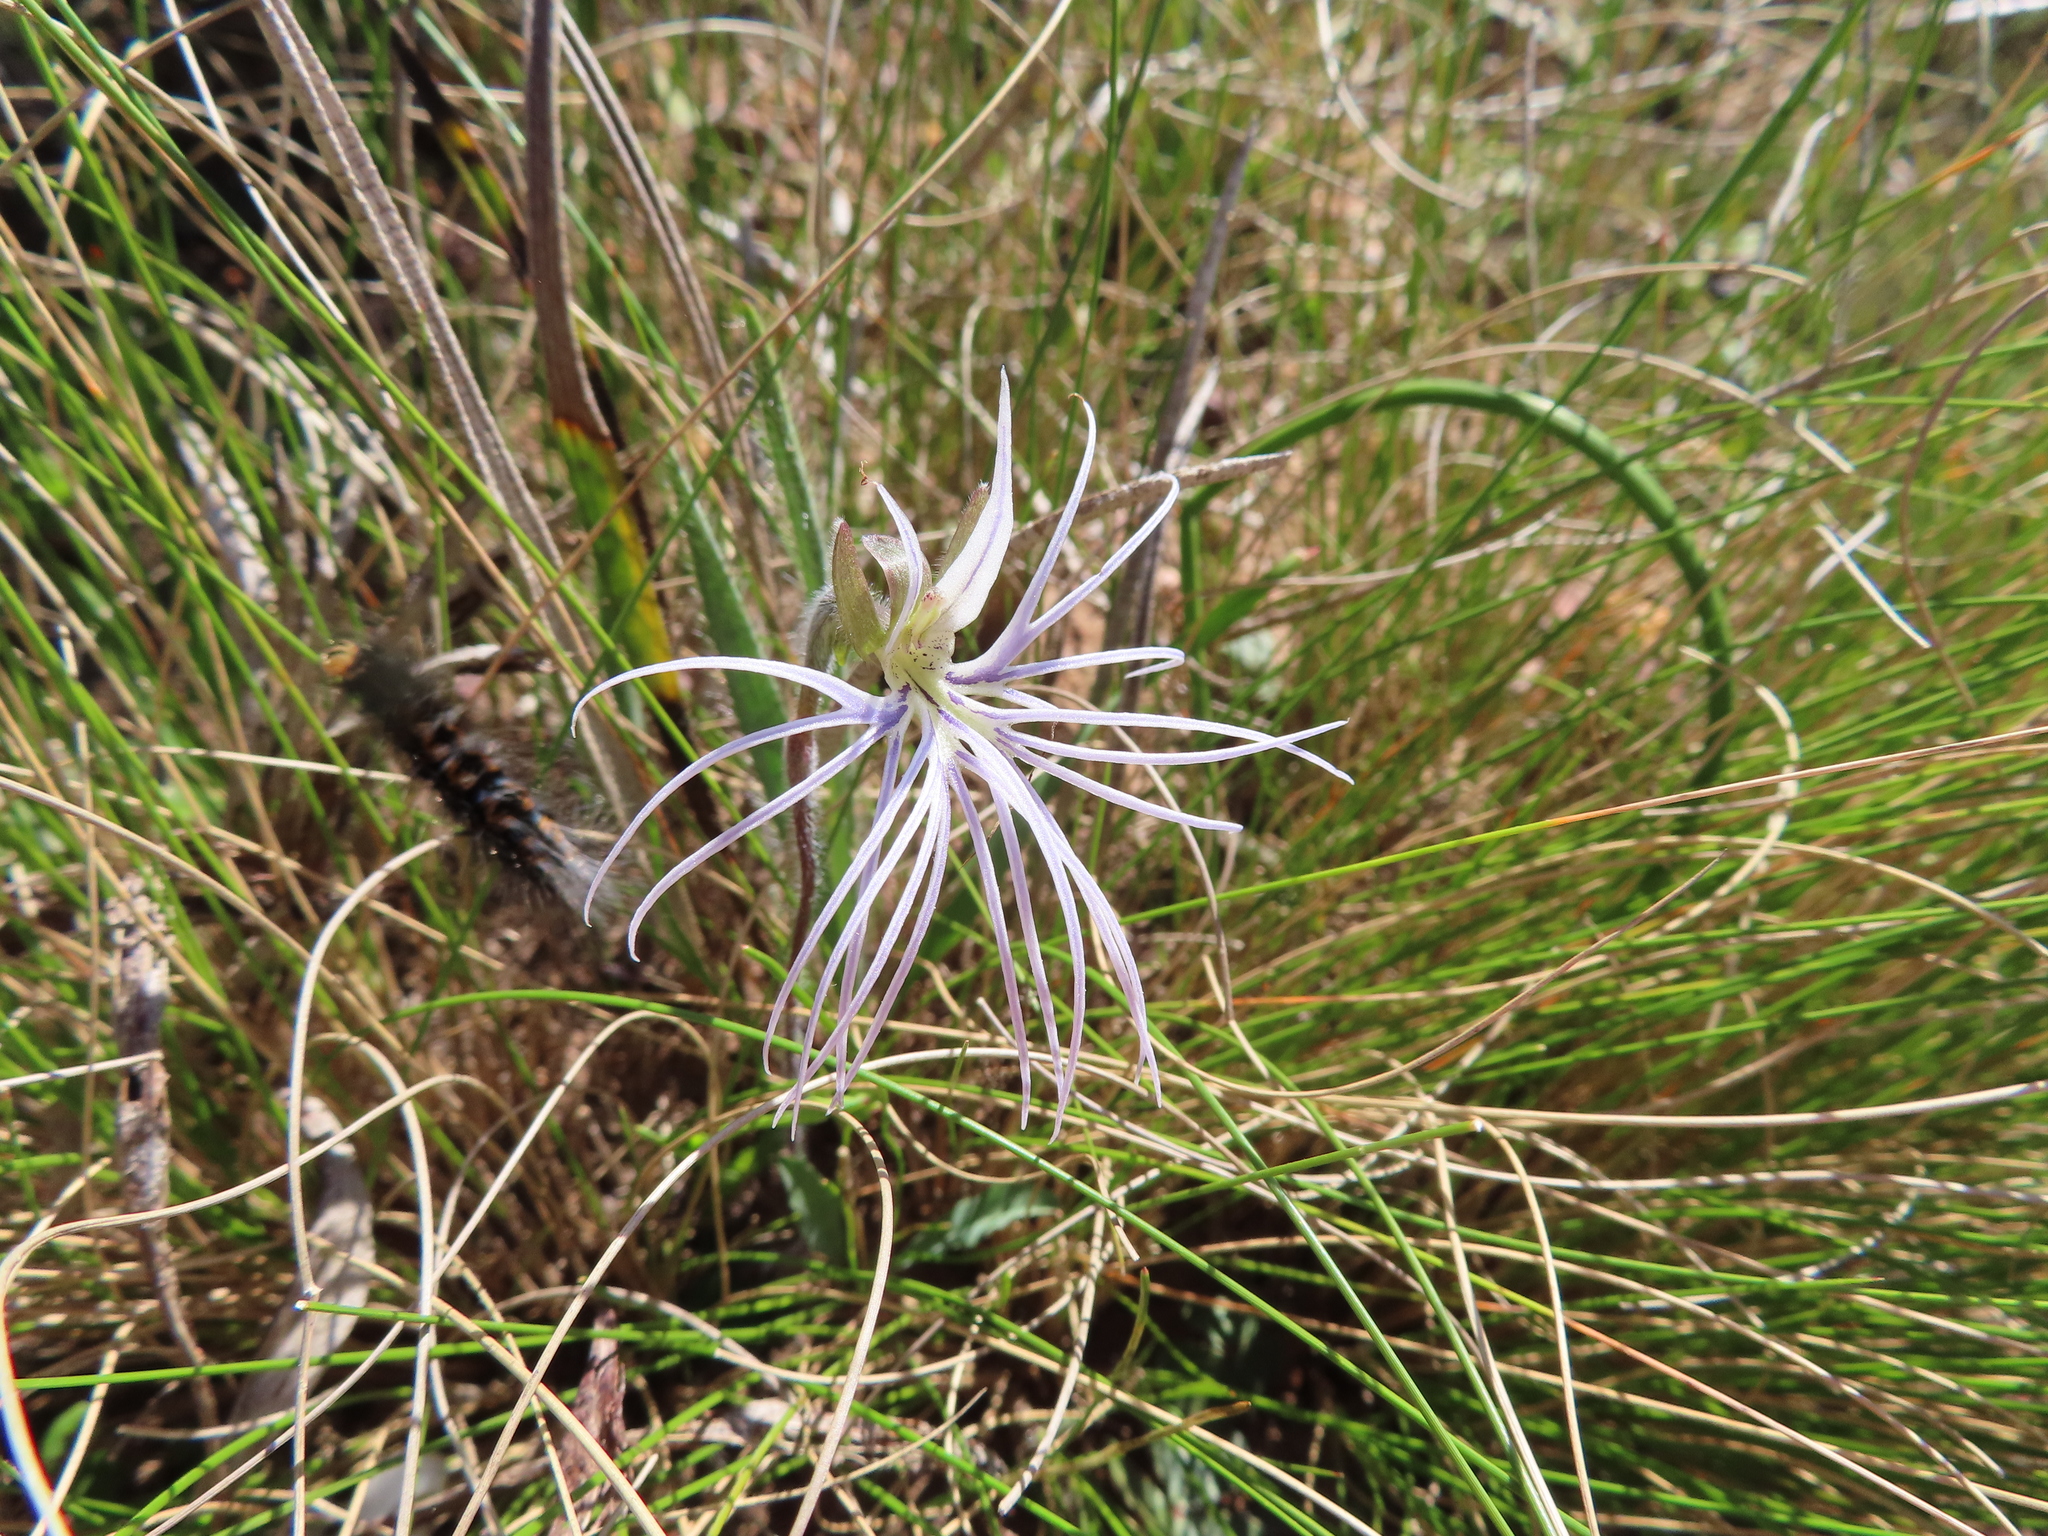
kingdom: Plantae
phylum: Tracheophyta
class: Liliopsida
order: Asparagales
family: Orchidaceae
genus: Holothrix
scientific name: Holothrix burmanniana
